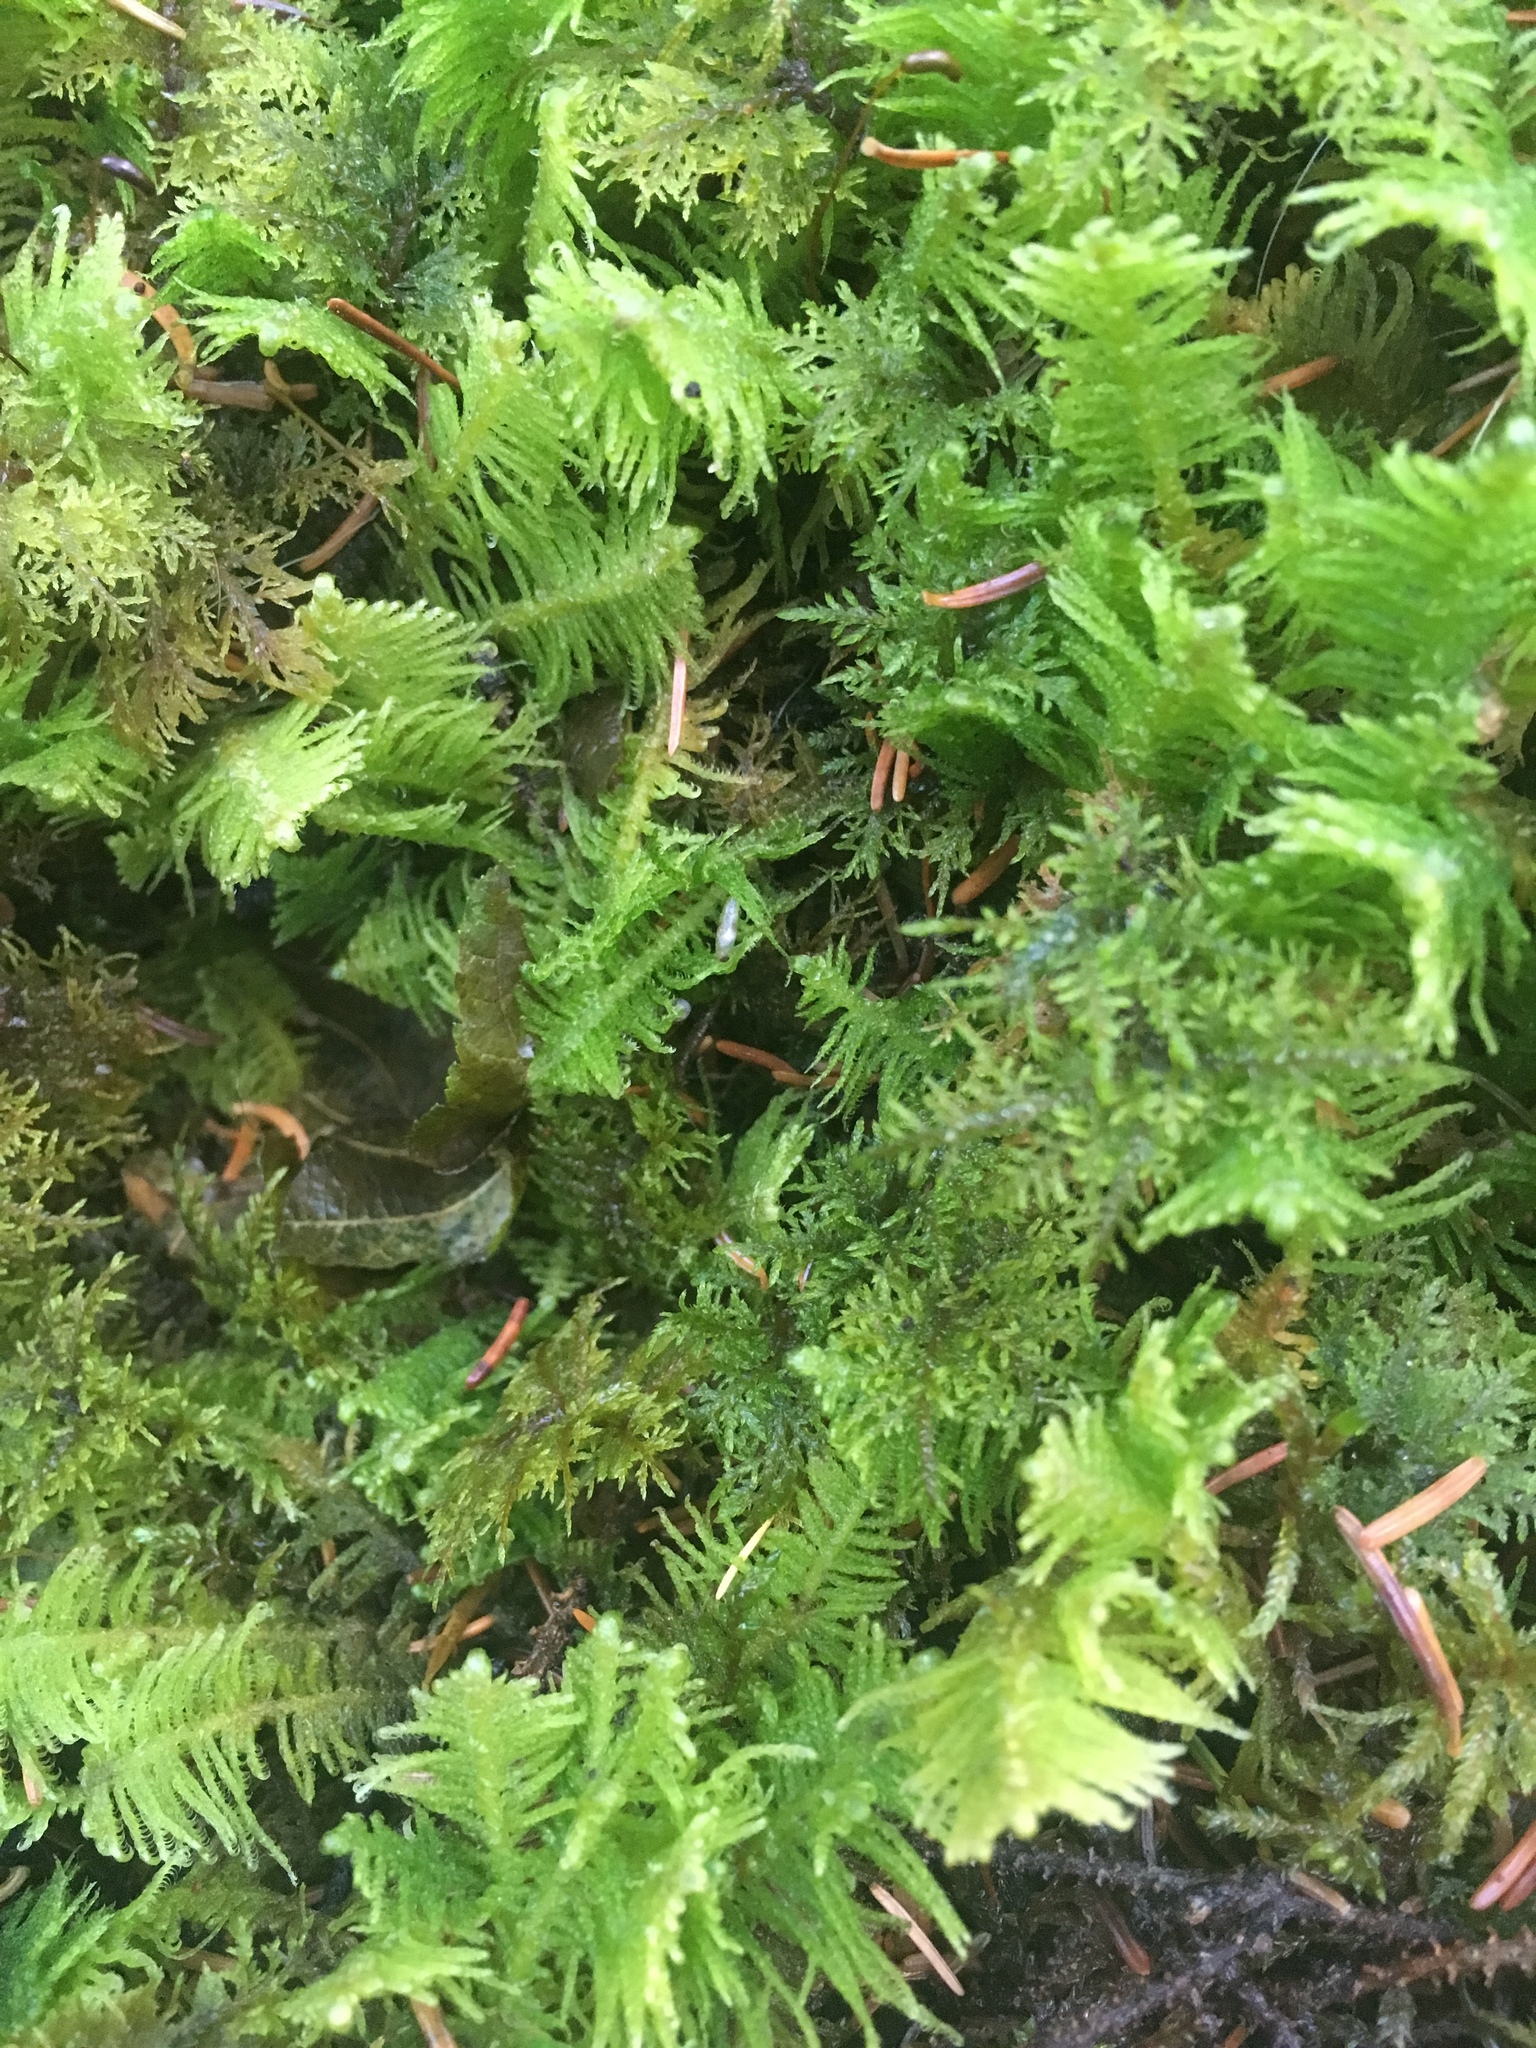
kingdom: Plantae
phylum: Bryophyta
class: Bryopsida
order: Hypnales
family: Pylaisiaceae
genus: Ptilium
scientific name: Ptilium crista-castrensis
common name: Knight's plume moss
